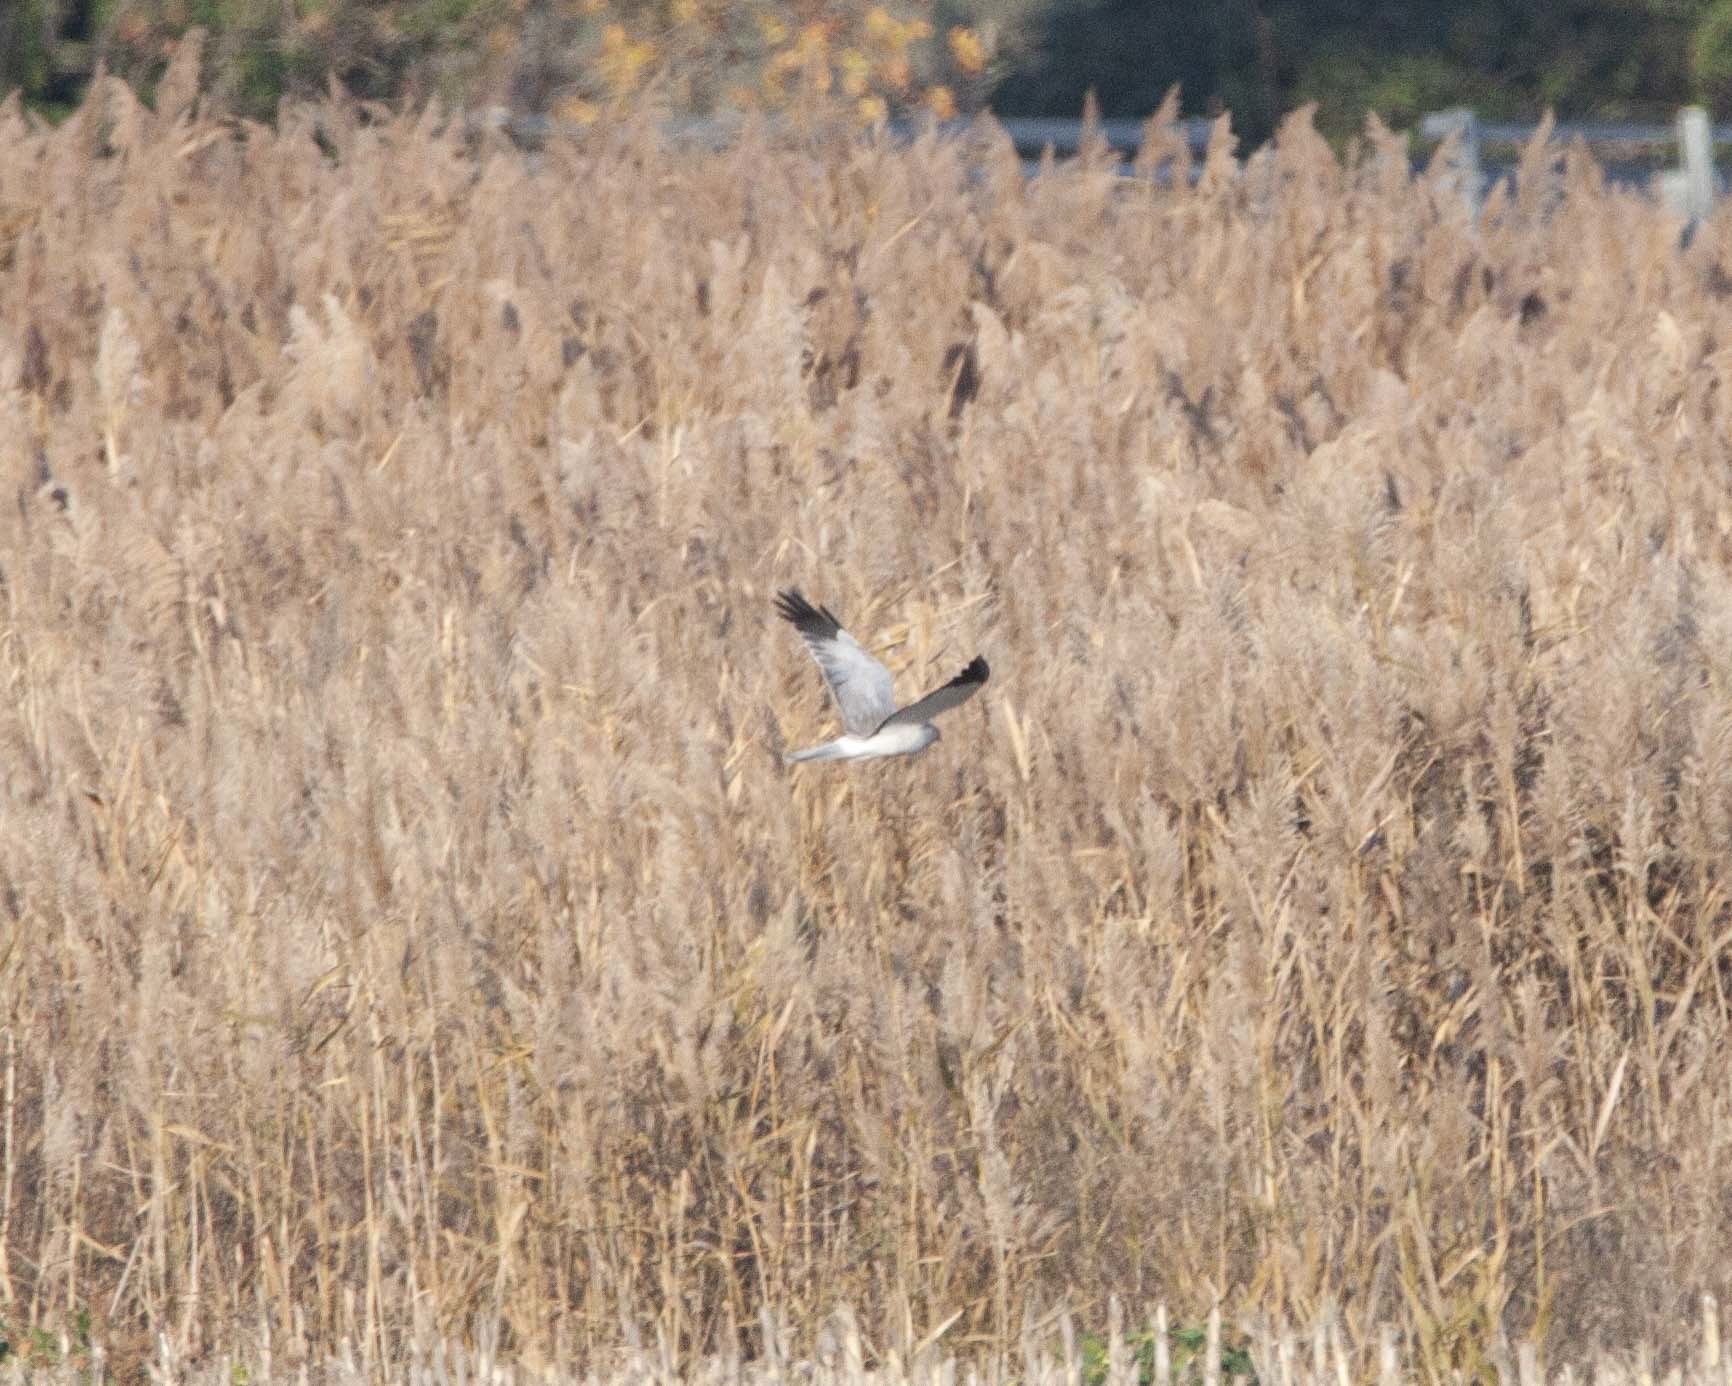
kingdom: Animalia
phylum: Chordata
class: Aves
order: Accipitriformes
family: Accipitridae
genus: Circus
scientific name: Circus cyaneus
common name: Hen harrier
